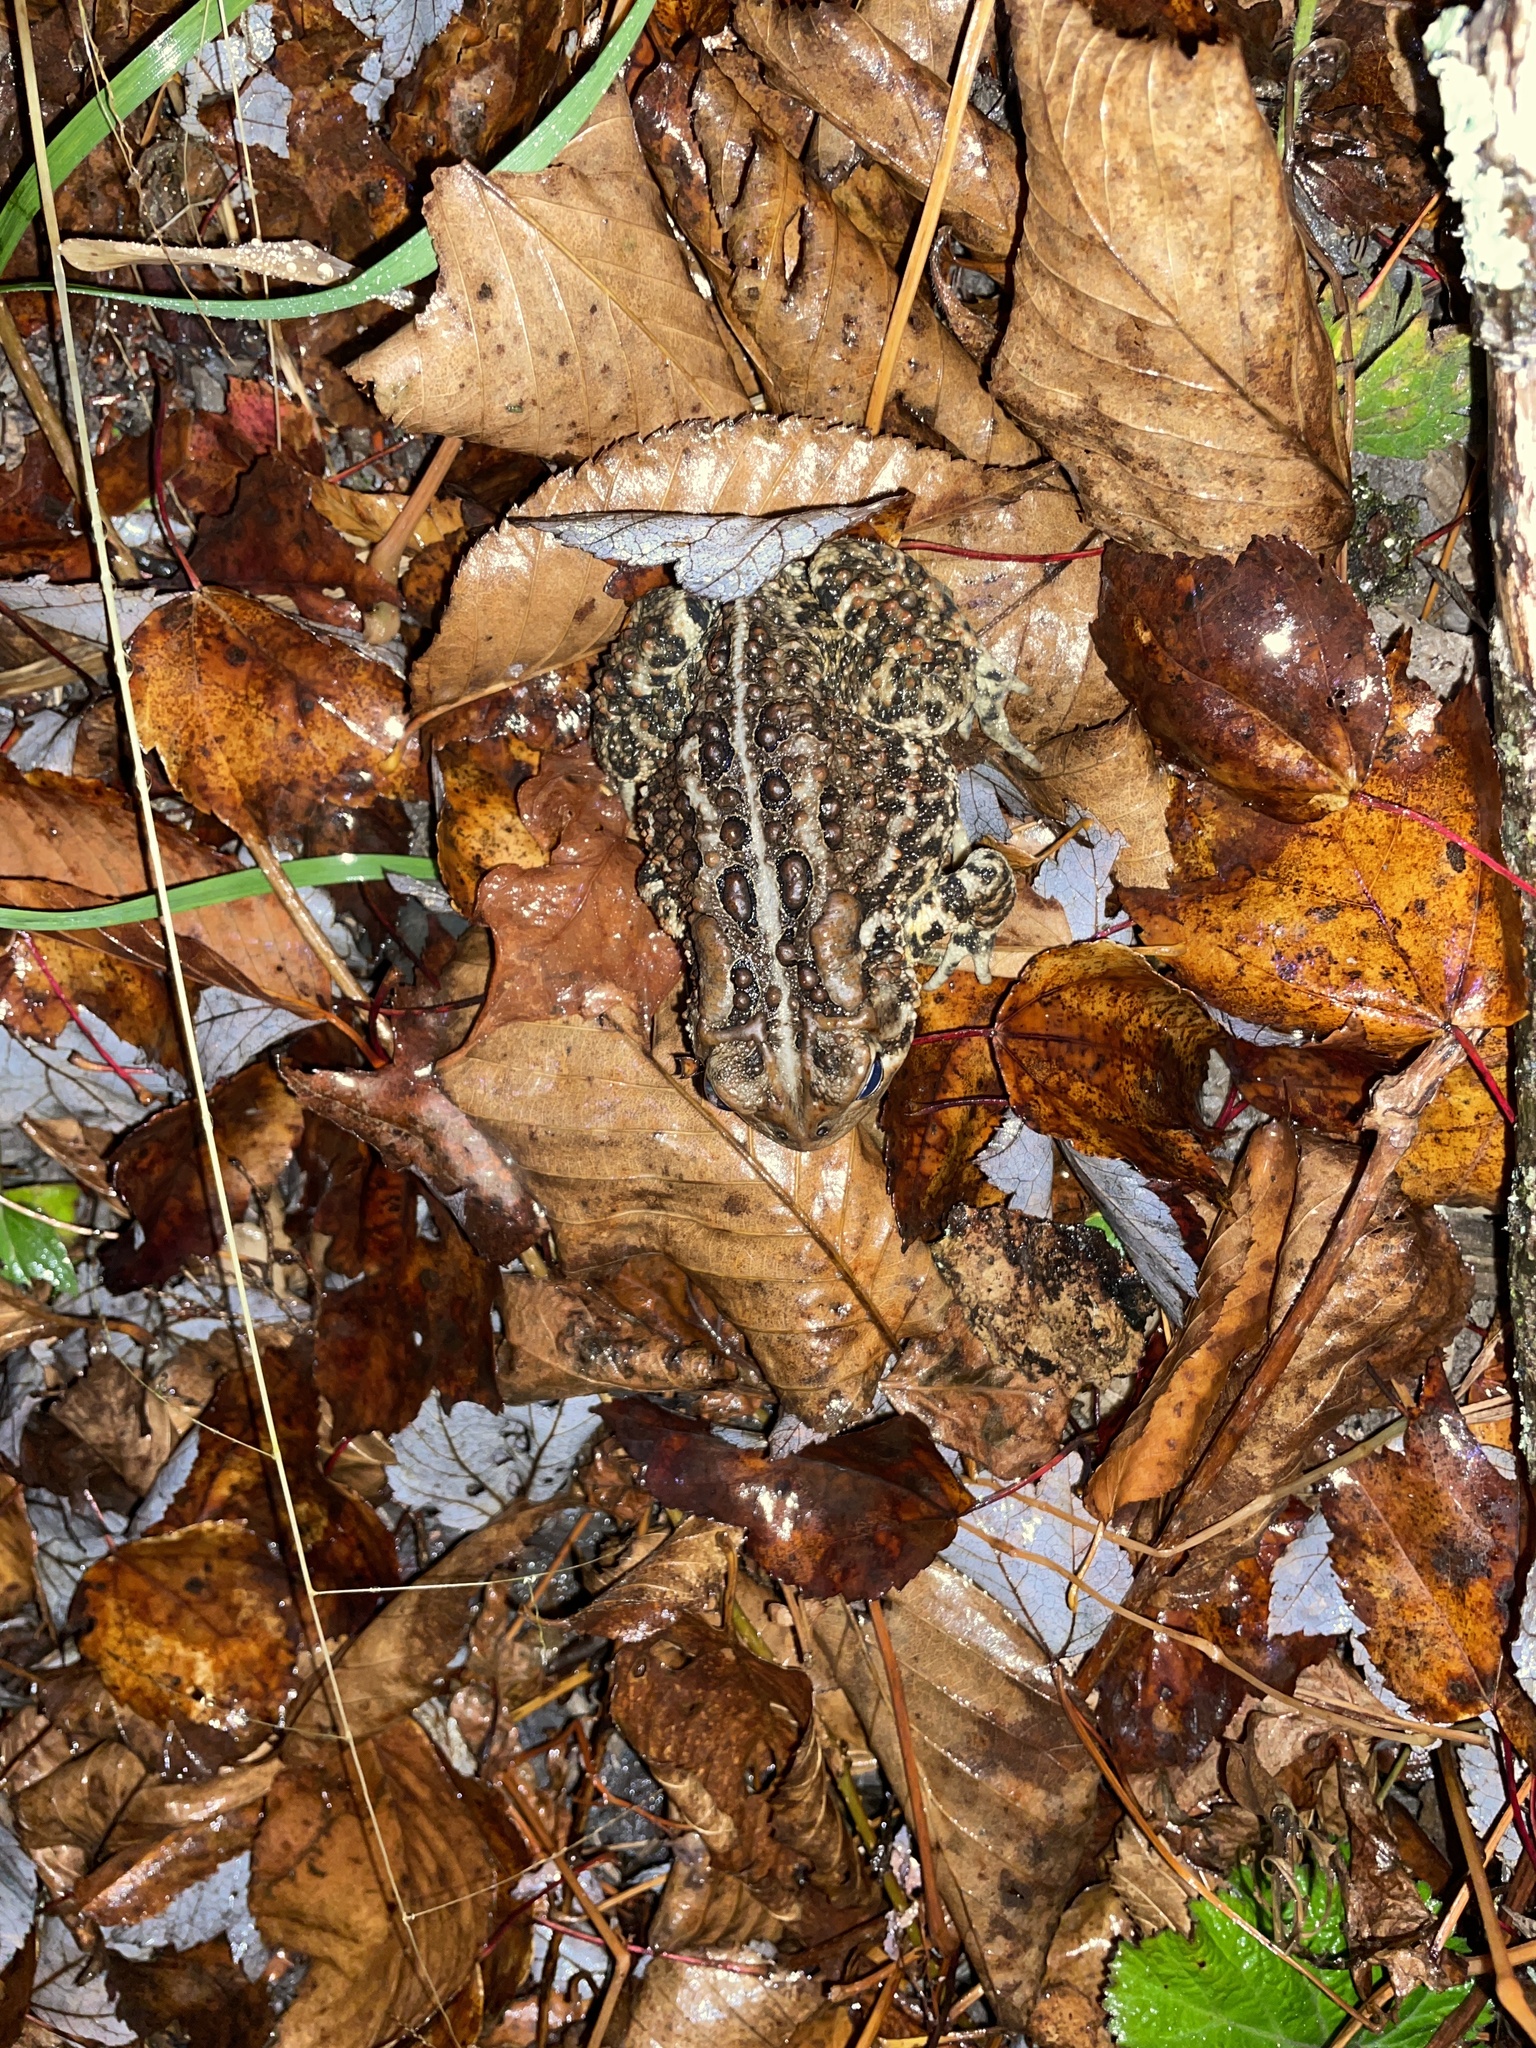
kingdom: Animalia
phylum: Chordata
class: Amphibia
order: Anura
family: Bufonidae
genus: Anaxyrus
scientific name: Anaxyrus americanus
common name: American toad
